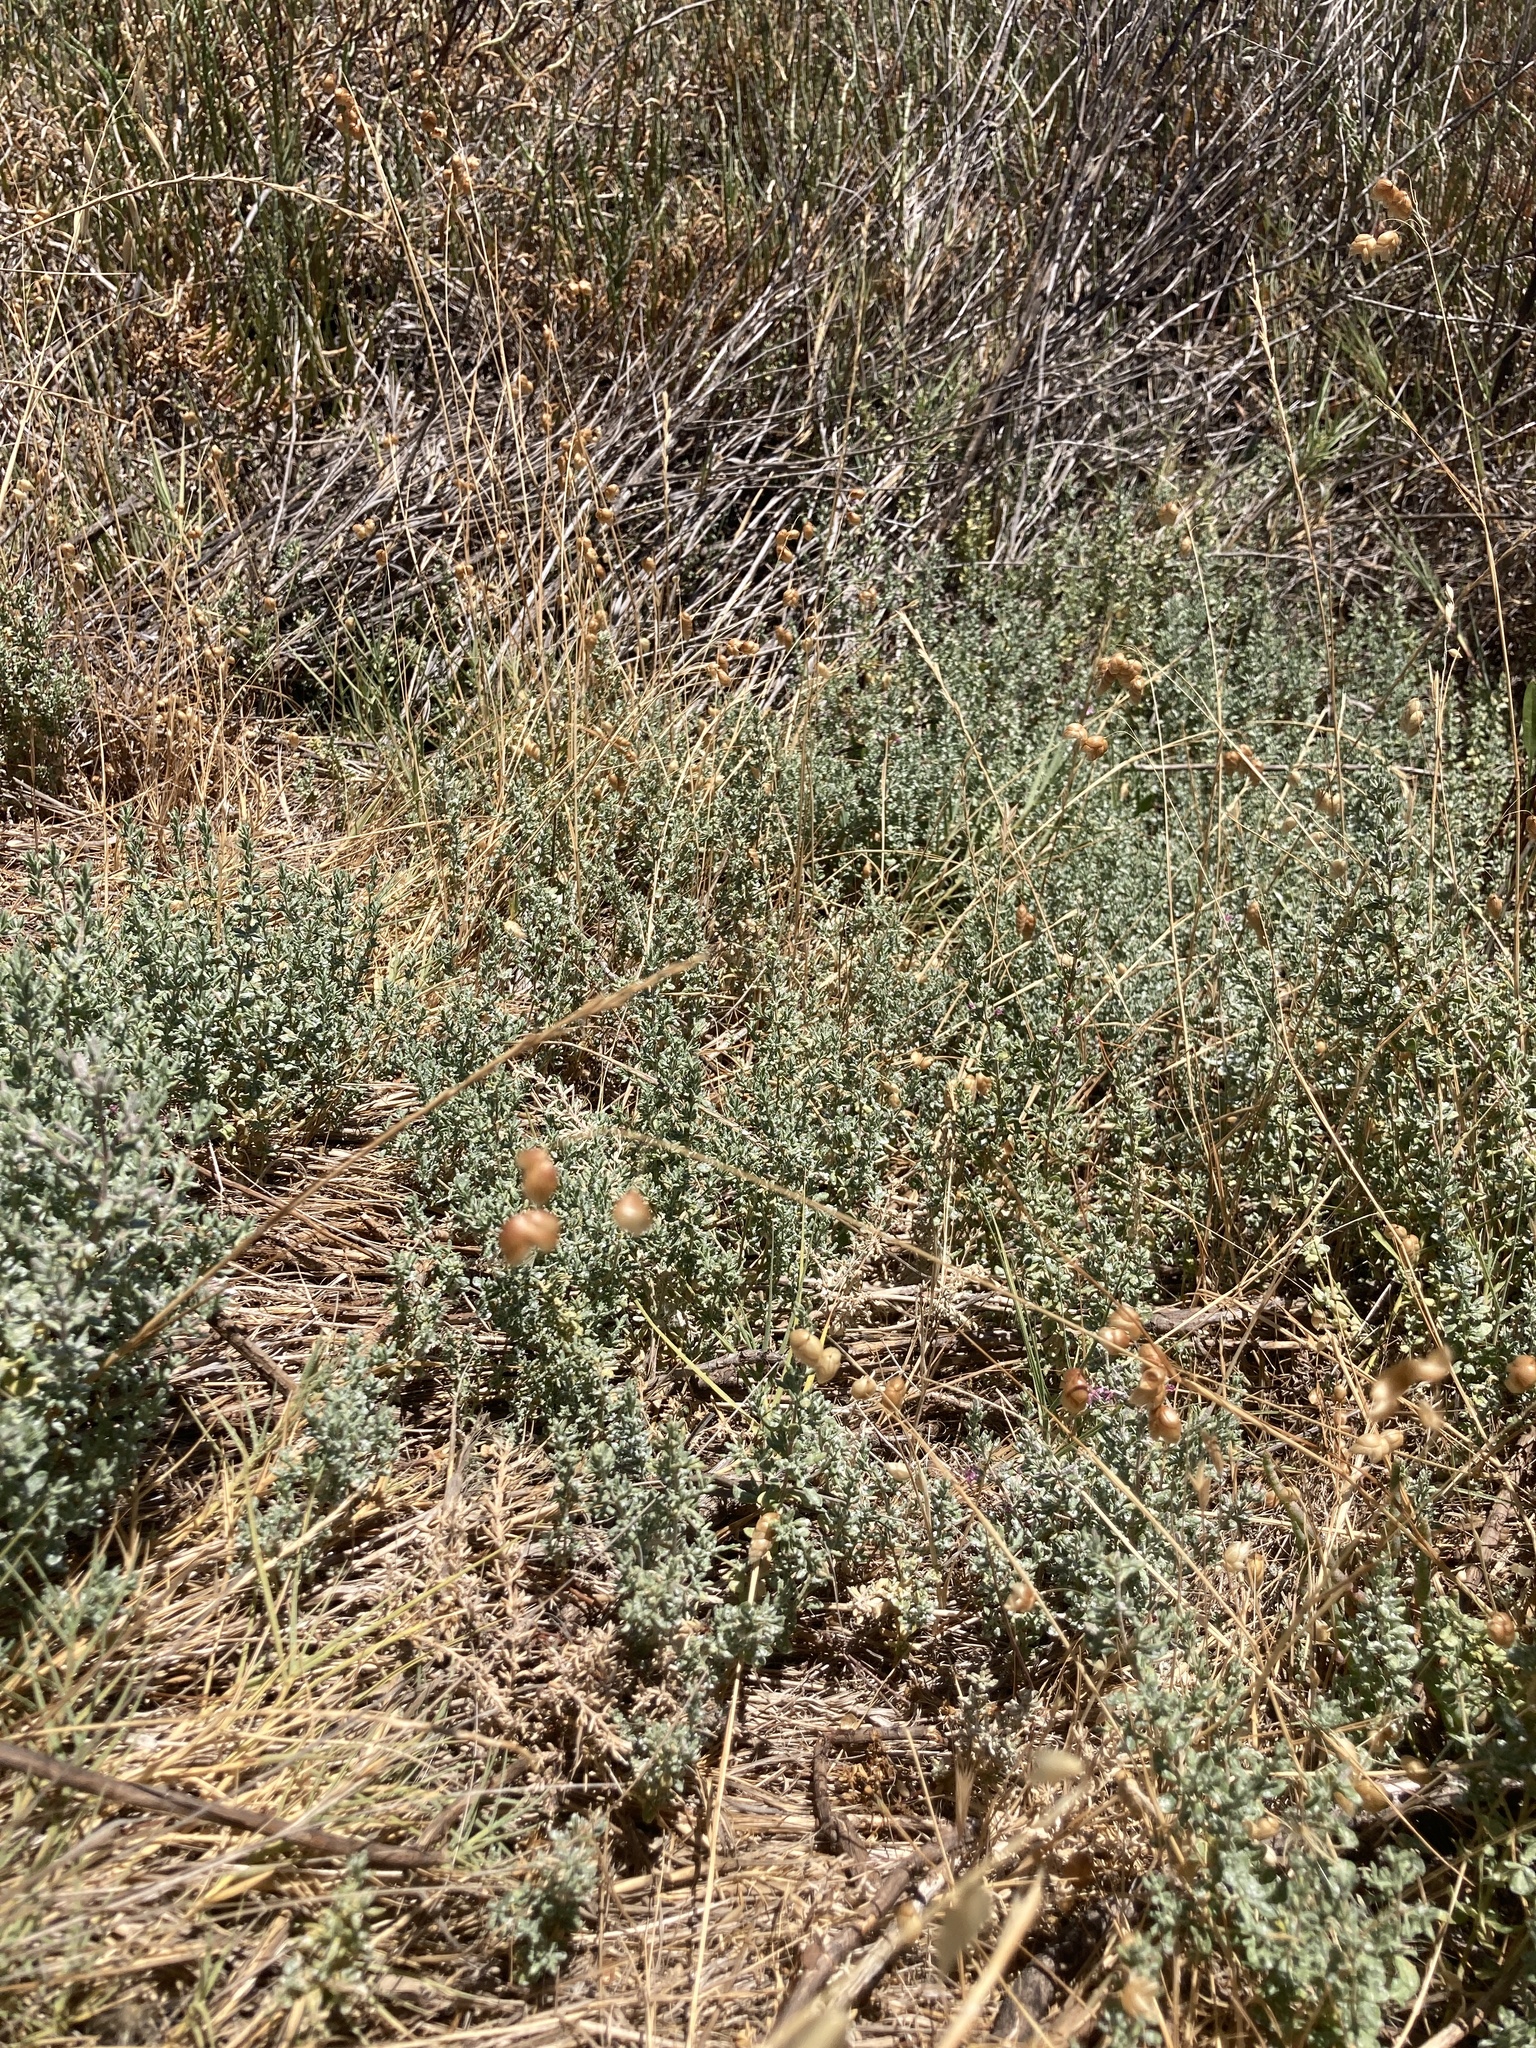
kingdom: Plantae
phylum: Tracheophyta
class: Magnoliopsida
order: Caryophyllales
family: Frankeniaceae
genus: Frankenia
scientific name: Frankenia salina
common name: Alkali seaheath
